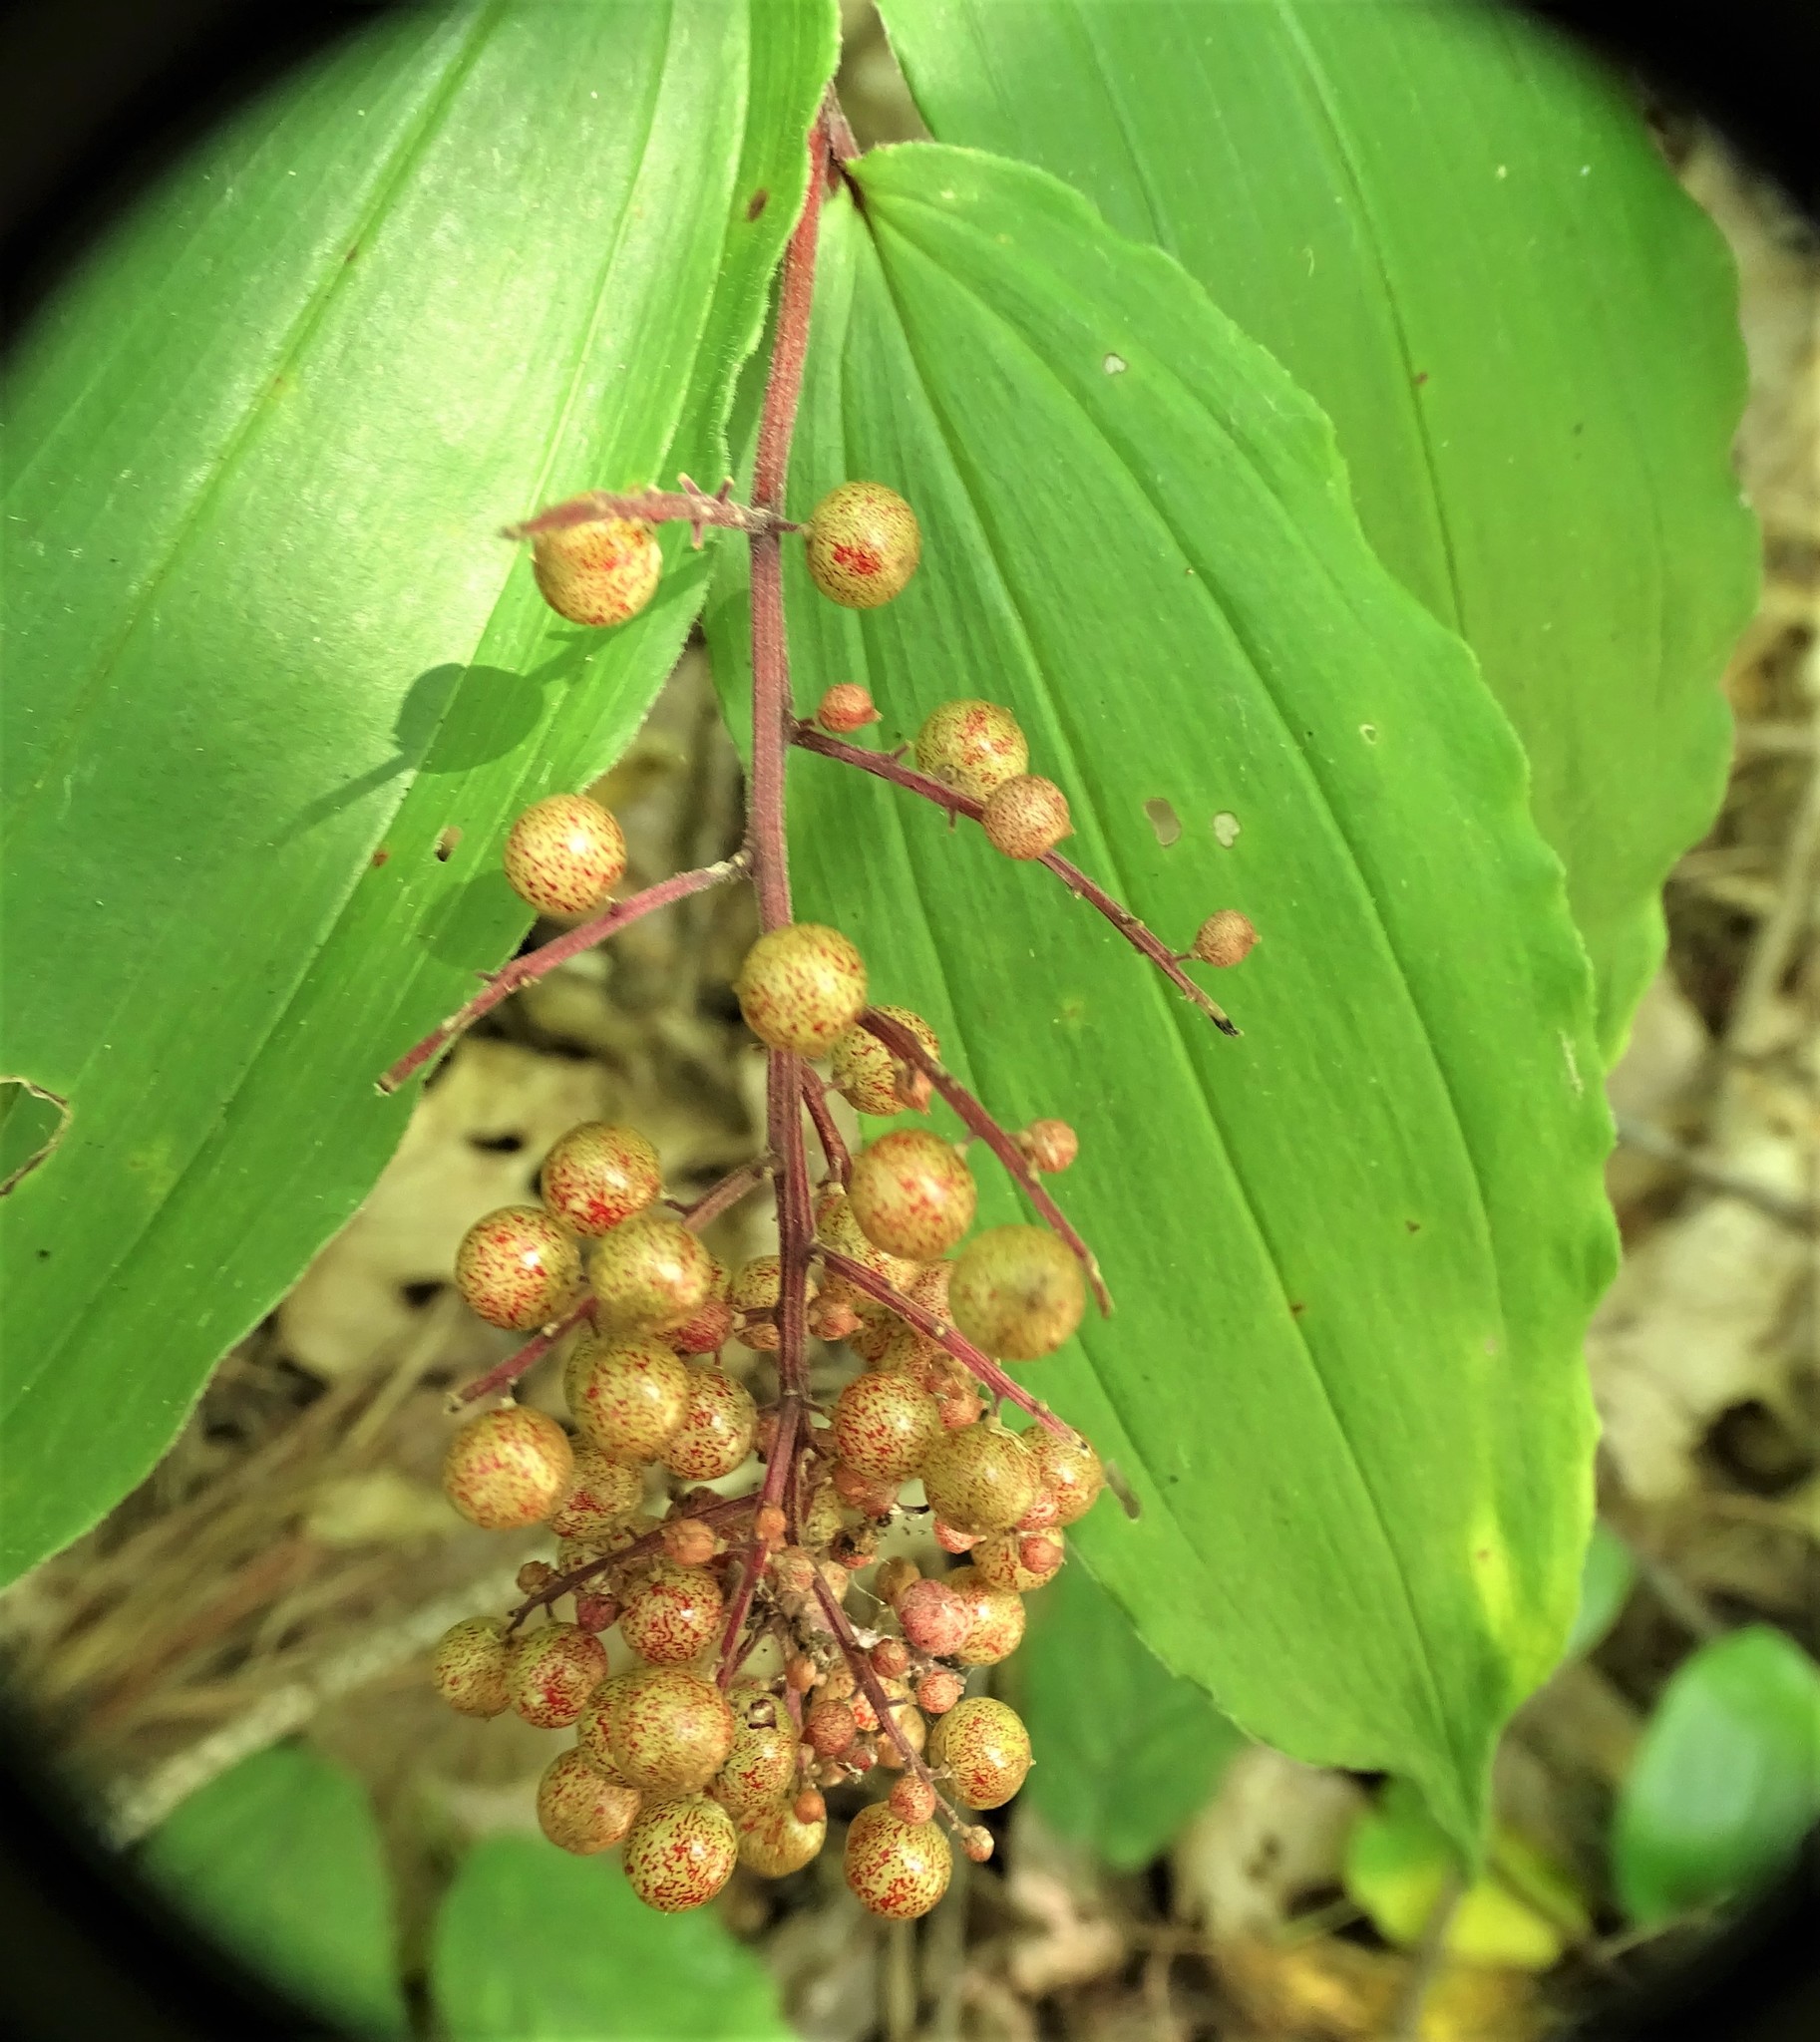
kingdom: Plantae
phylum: Tracheophyta
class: Liliopsida
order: Asparagales
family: Asparagaceae
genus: Maianthemum
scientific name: Maianthemum racemosum
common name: False spikenard
